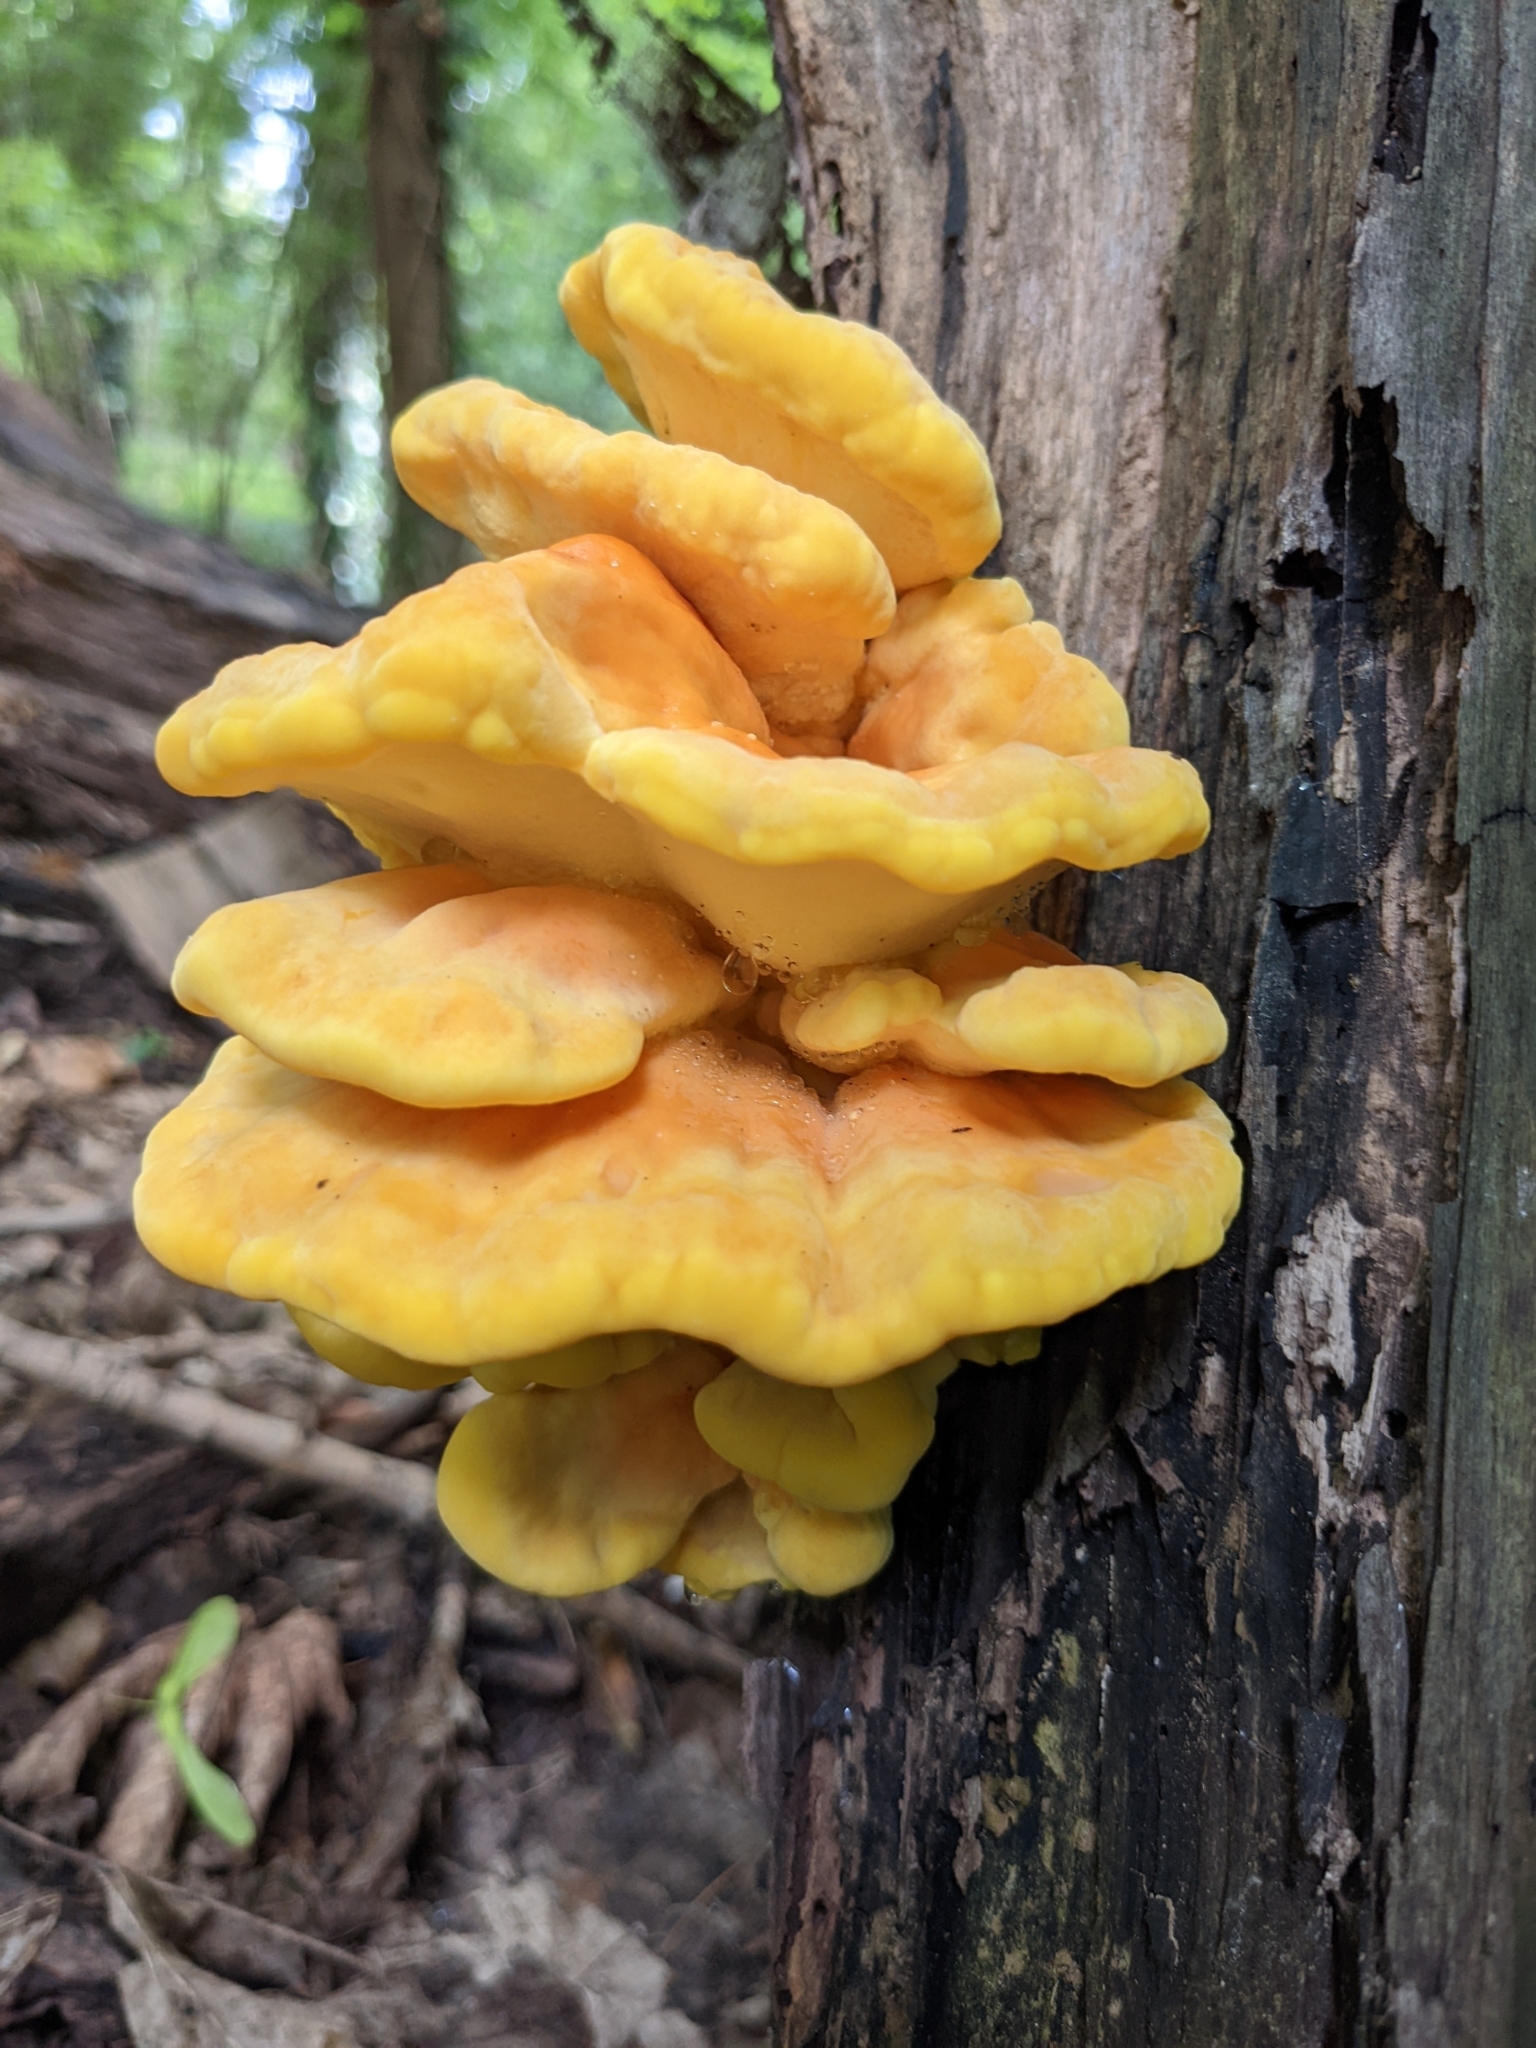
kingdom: Fungi
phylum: Basidiomycota
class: Agaricomycetes
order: Polyporales
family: Laetiporaceae
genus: Laetiporus
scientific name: Laetiporus sulphureus
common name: Chicken of the woods
